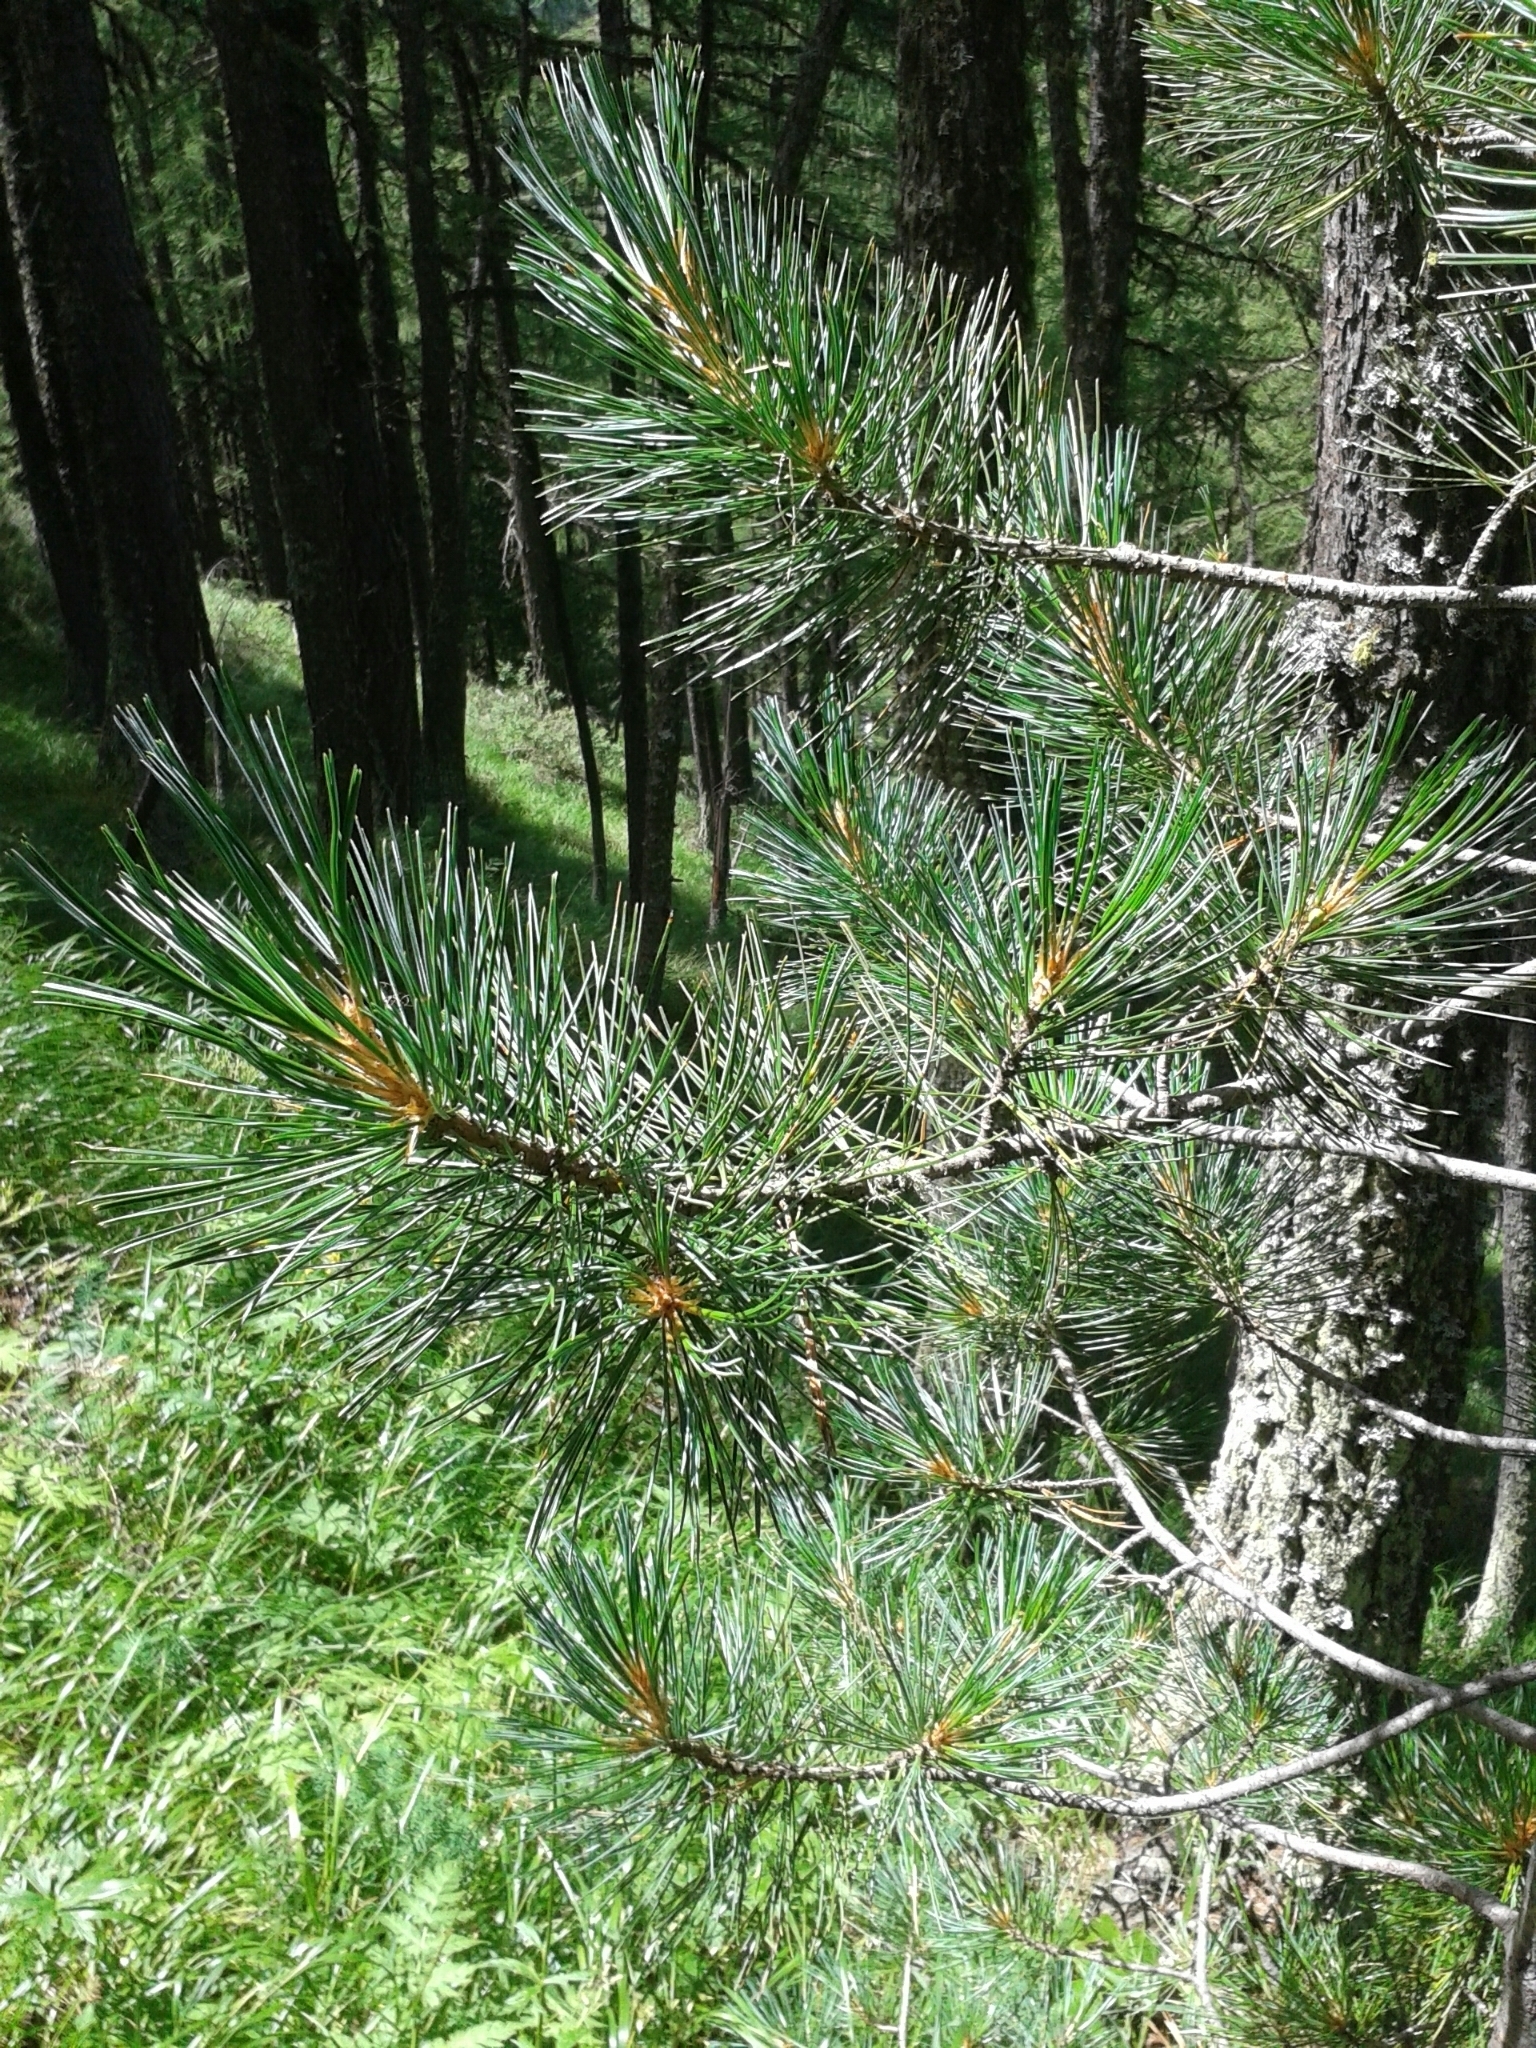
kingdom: Plantae
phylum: Tracheophyta
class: Pinopsida
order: Pinales
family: Pinaceae
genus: Pinus
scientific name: Pinus cembra
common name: Arolla pine
